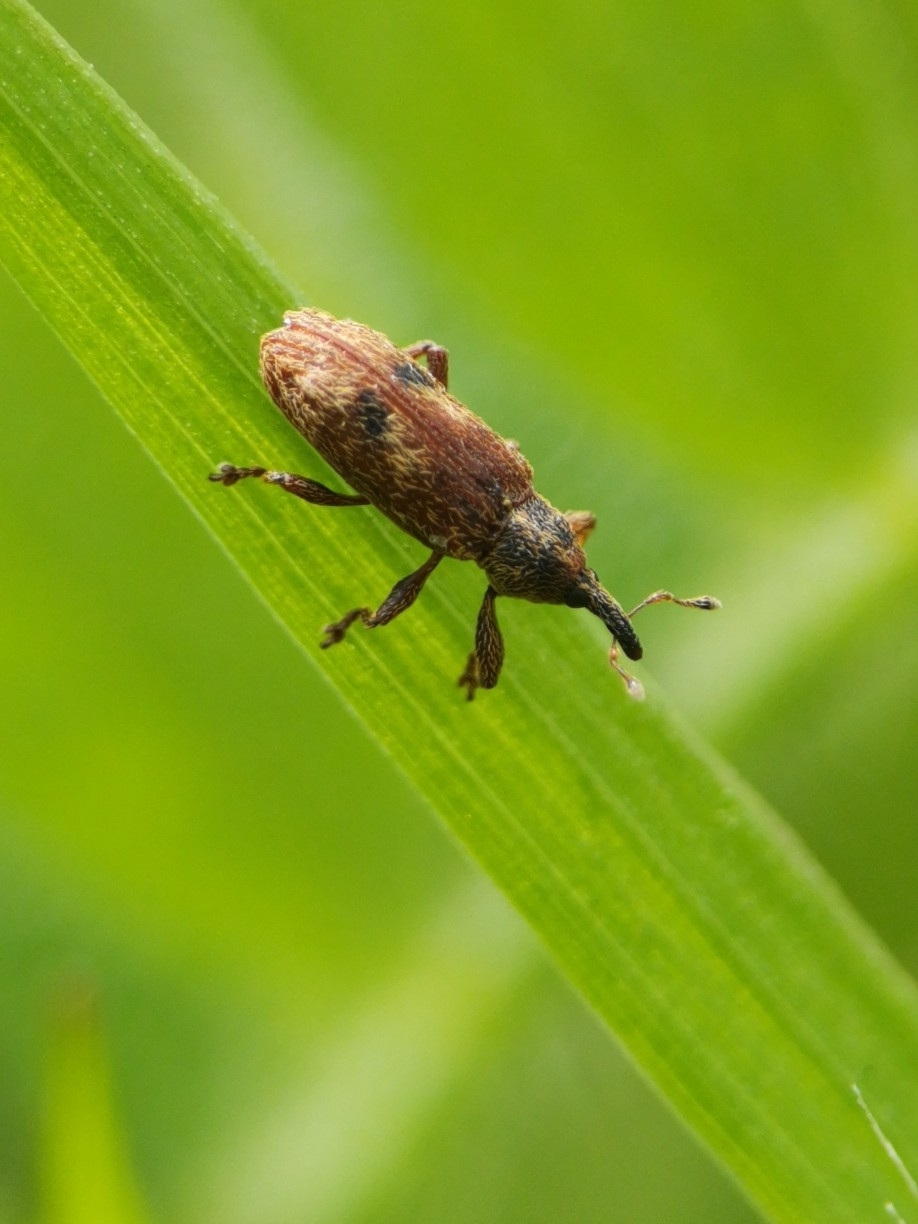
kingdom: Animalia
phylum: Arthropoda
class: Insecta
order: Coleoptera
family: Curculionidae
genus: Bradybatus
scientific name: Bradybatus creutzeri
